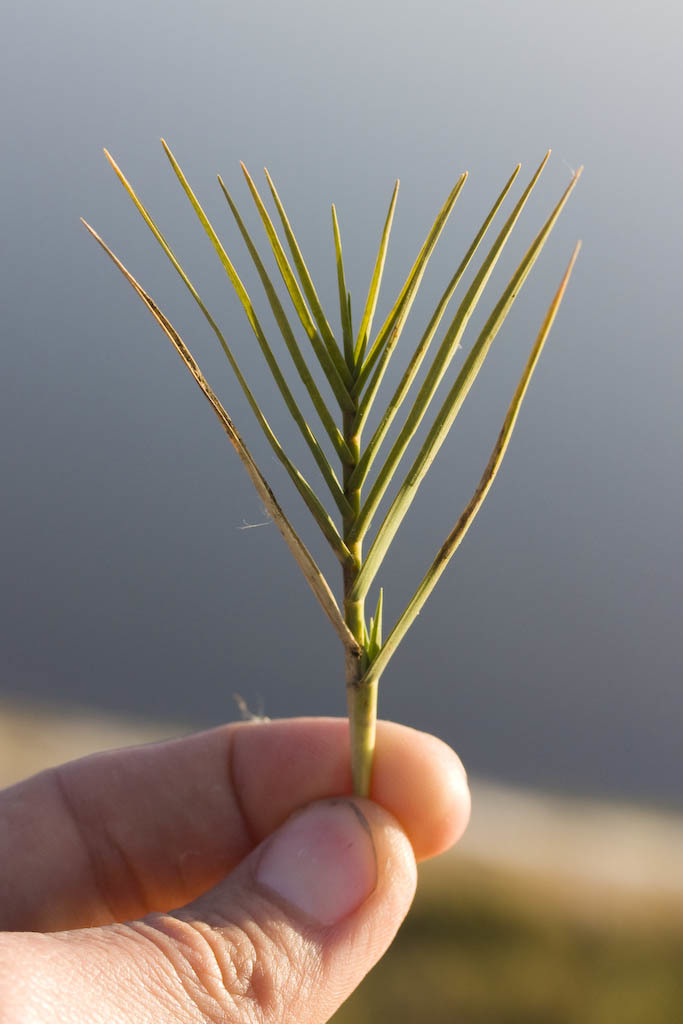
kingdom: Plantae
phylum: Tracheophyta
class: Liliopsida
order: Poales
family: Poaceae
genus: Distichlis
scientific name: Distichlis spicata
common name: Saltgrass
